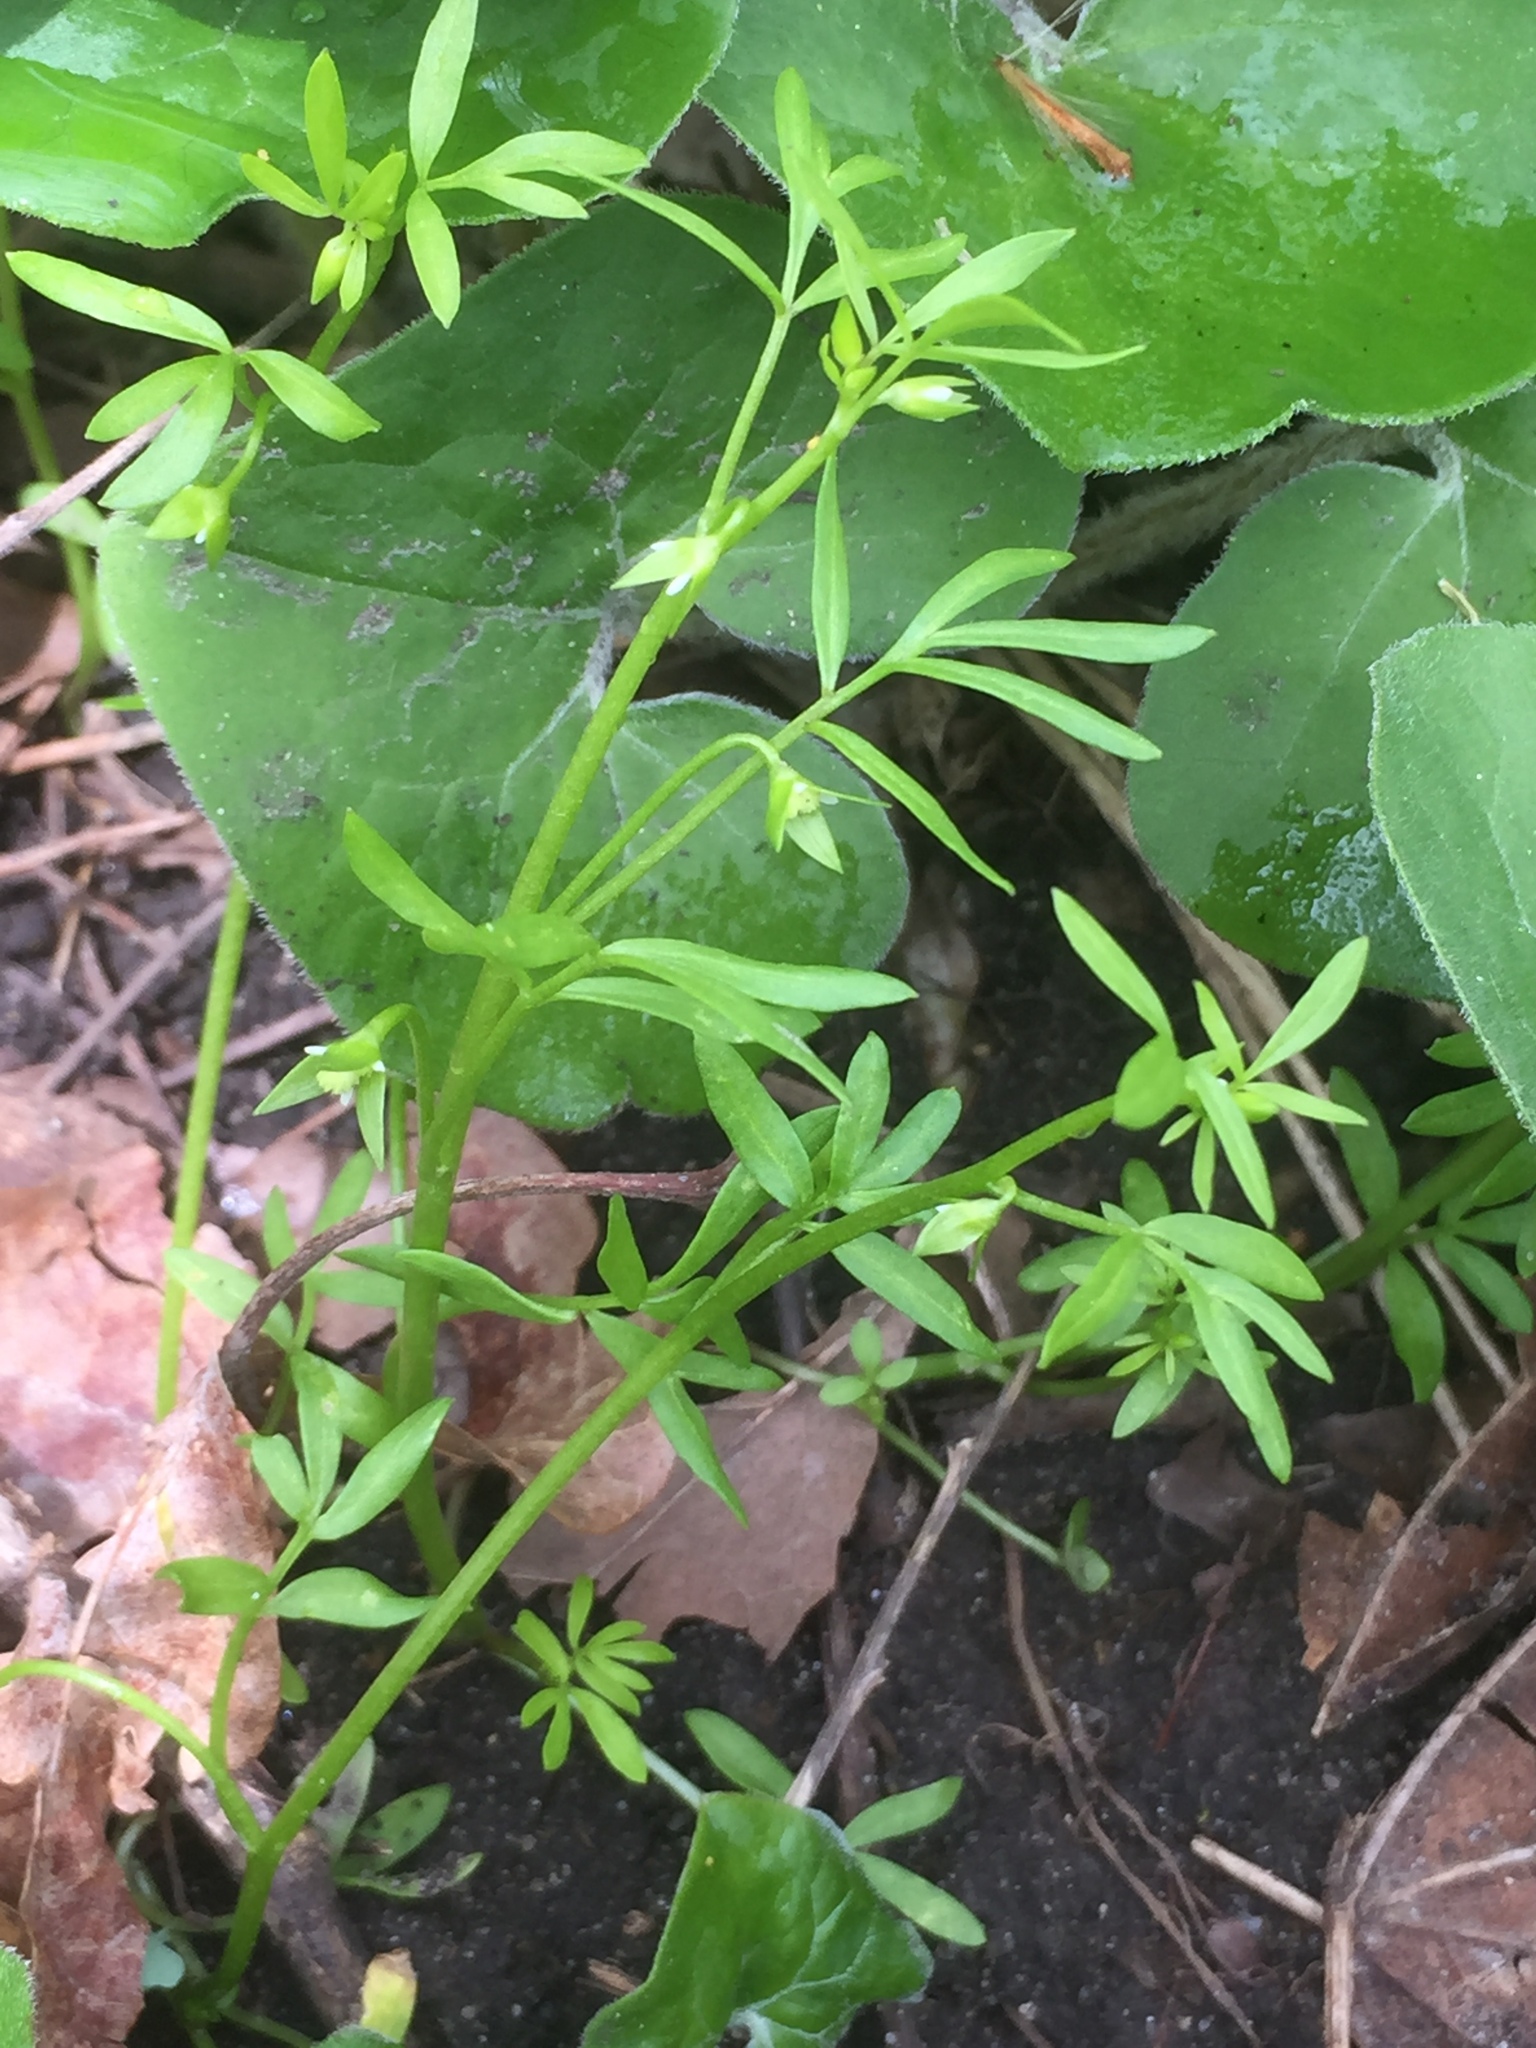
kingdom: Plantae
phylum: Tracheophyta
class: Magnoliopsida
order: Brassicales
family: Limnanthaceae
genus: Floerkea
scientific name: Floerkea proserpinacoides
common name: False mermaid
